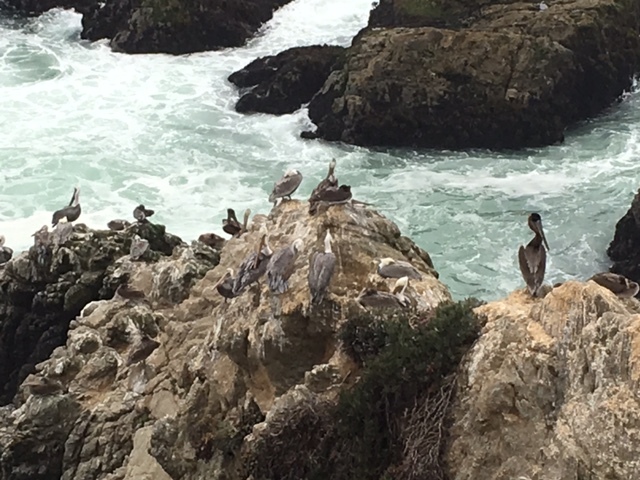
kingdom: Animalia
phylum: Chordata
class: Aves
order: Pelecaniformes
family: Pelecanidae
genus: Pelecanus
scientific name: Pelecanus occidentalis
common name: Brown pelican
